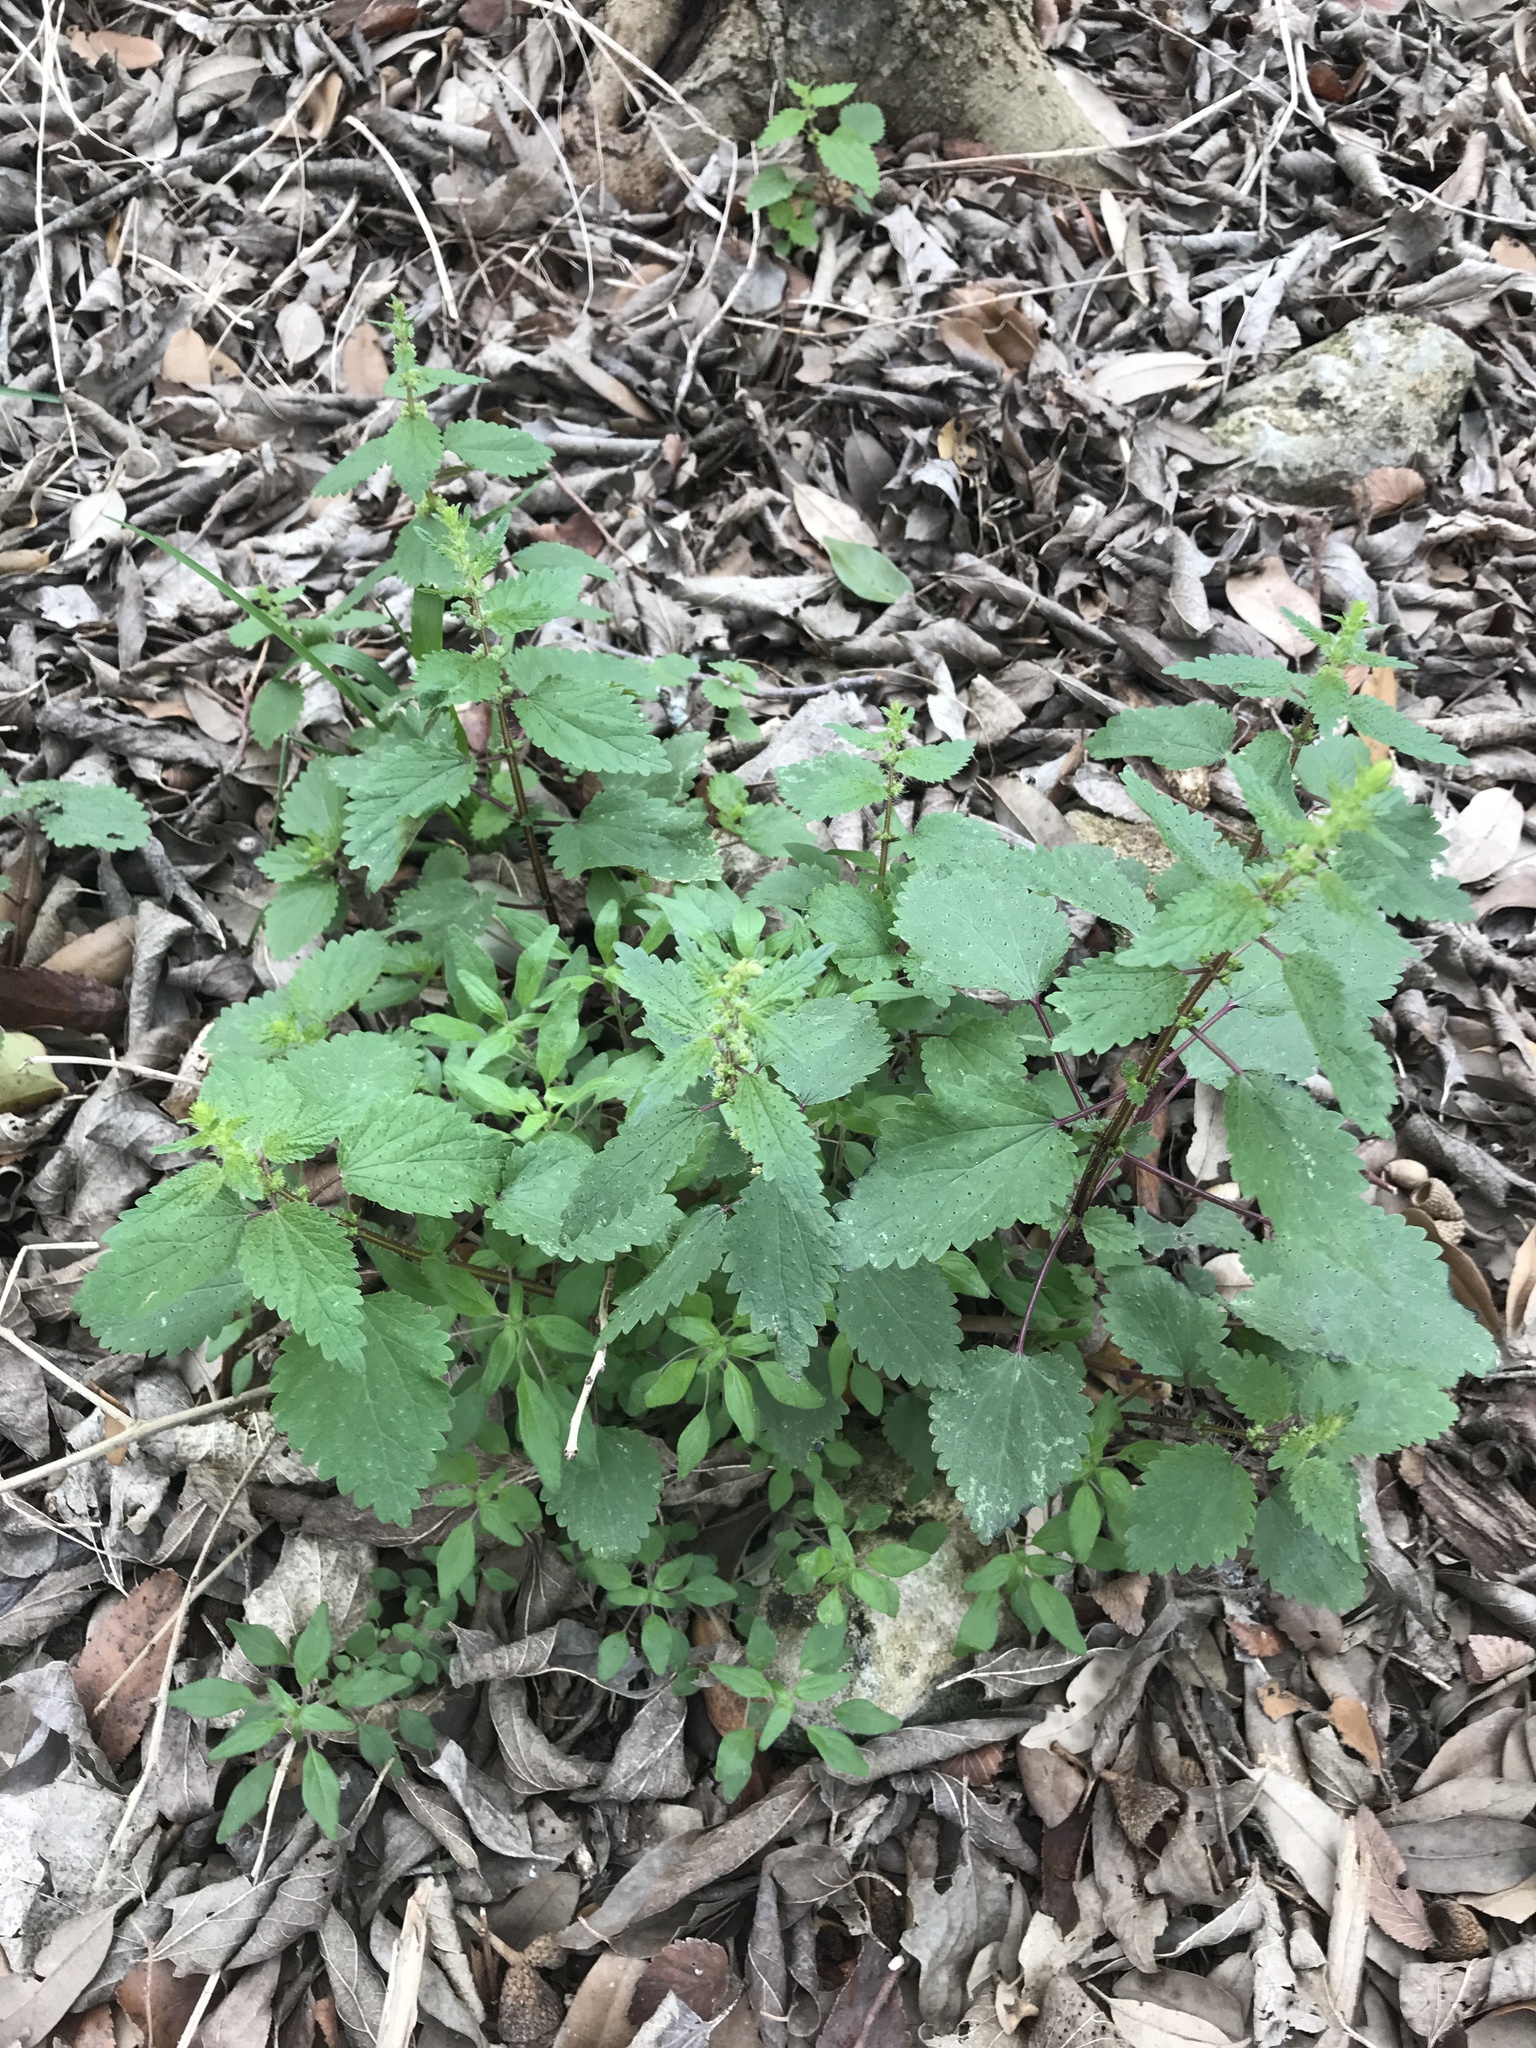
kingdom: Plantae
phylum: Tracheophyta
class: Magnoliopsida
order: Rosales
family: Urticaceae
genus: Urtica
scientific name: Urtica chamaedryoides
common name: Heart-leaf nettle
